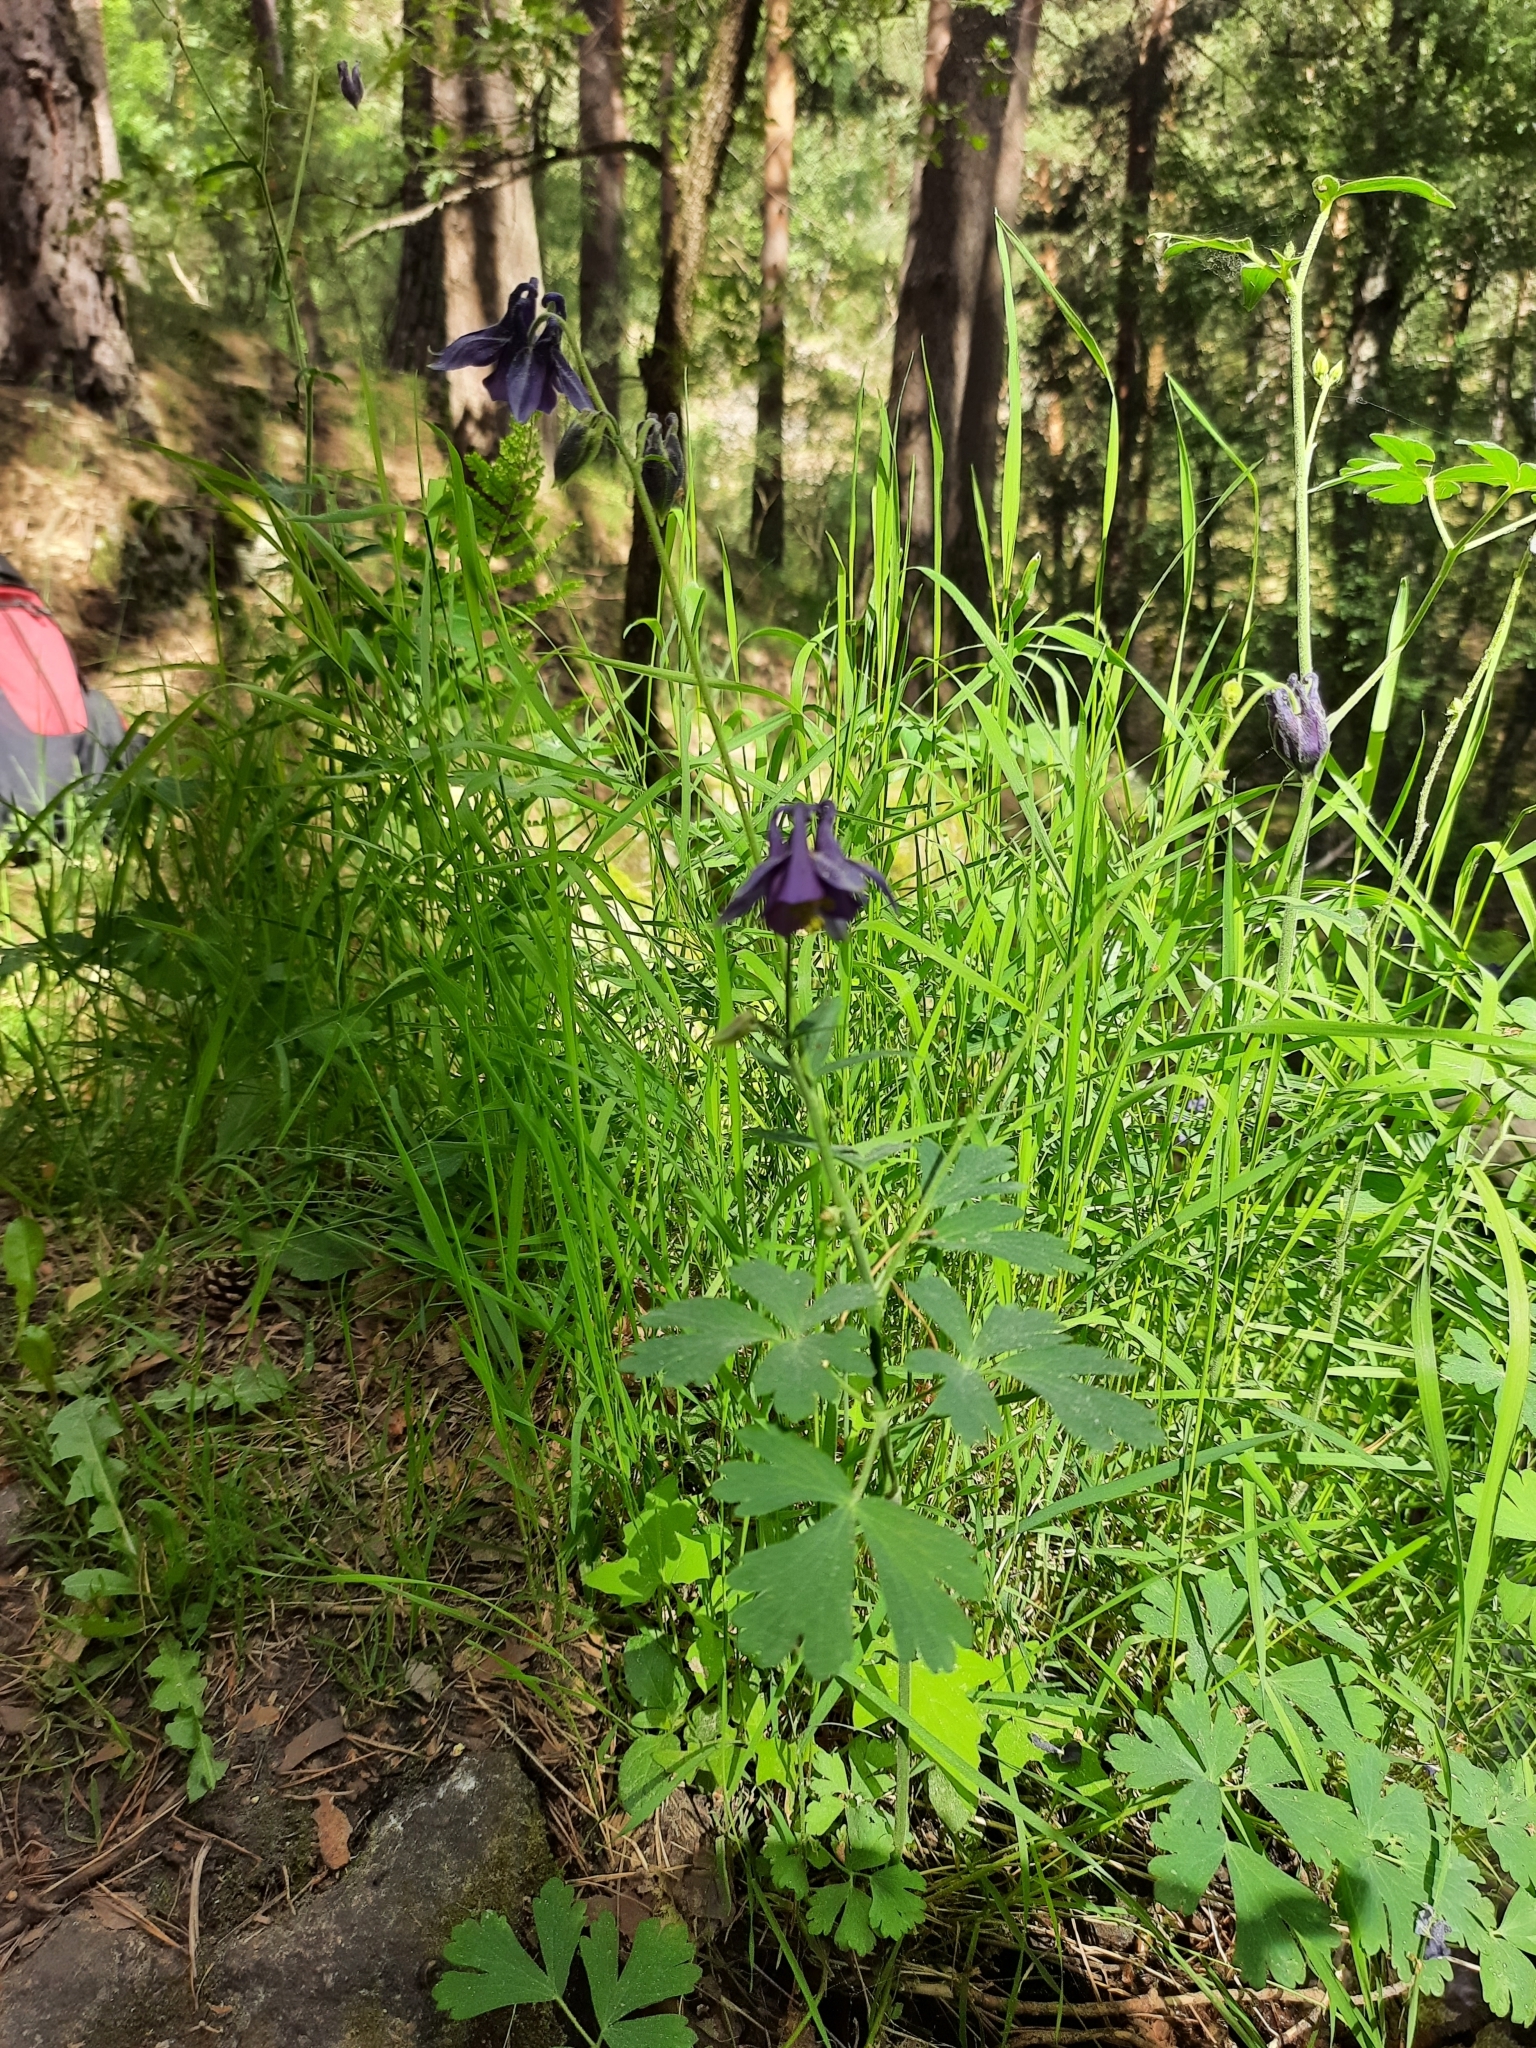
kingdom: Plantae
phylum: Tracheophyta
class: Magnoliopsida
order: Ranunculales
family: Ranunculaceae
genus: Aquilegia
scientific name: Aquilegia vulgaris
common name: Columbine
